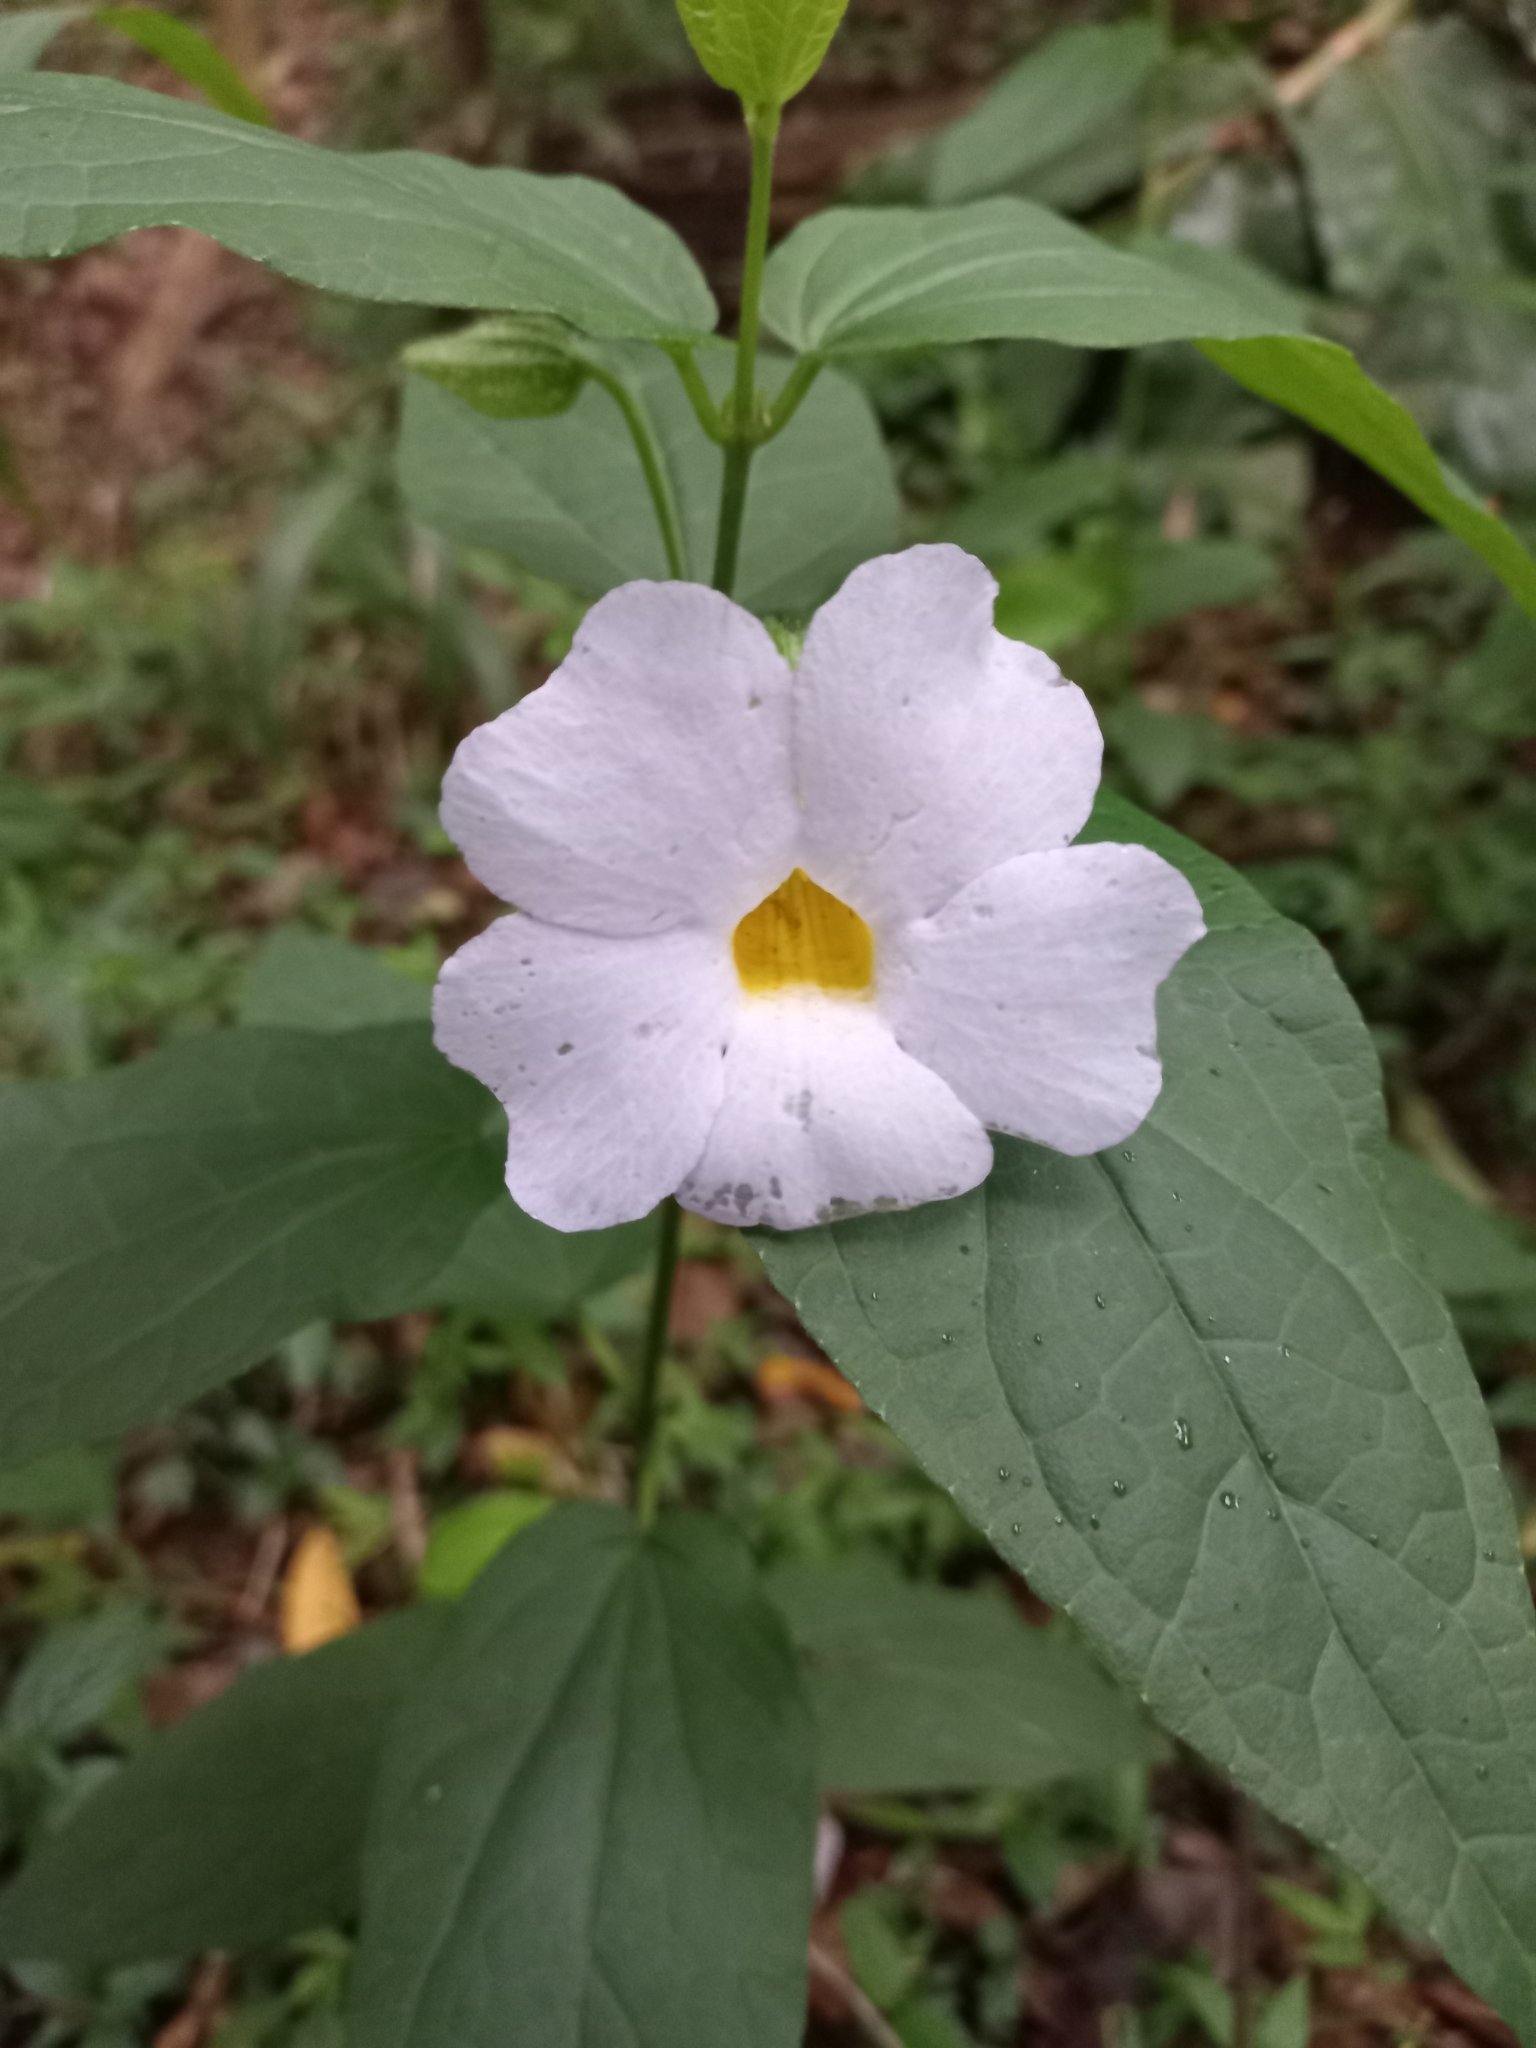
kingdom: Plantae
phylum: Tracheophyta
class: Magnoliopsida
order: Lamiales
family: Acanthaceae
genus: Thunbergia
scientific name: Thunbergia natalensis
